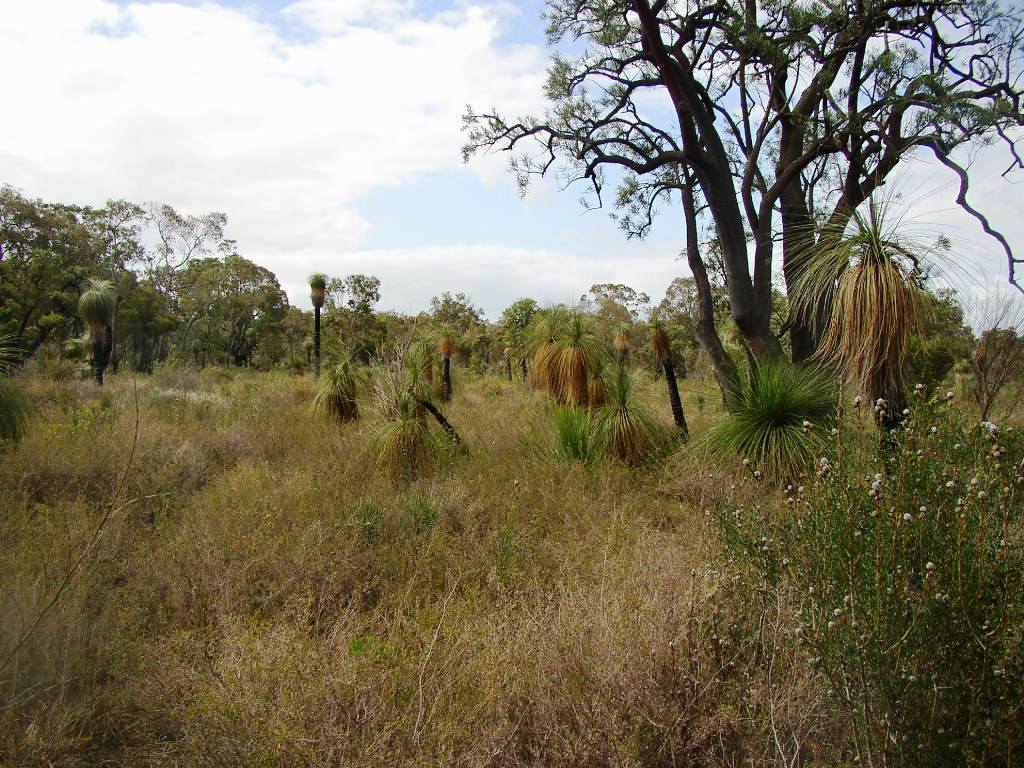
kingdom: Plantae
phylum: Tracheophyta
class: Liliopsida
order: Arecales
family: Dasypogonaceae
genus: Kingia
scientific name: Kingia australis
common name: Black gin
